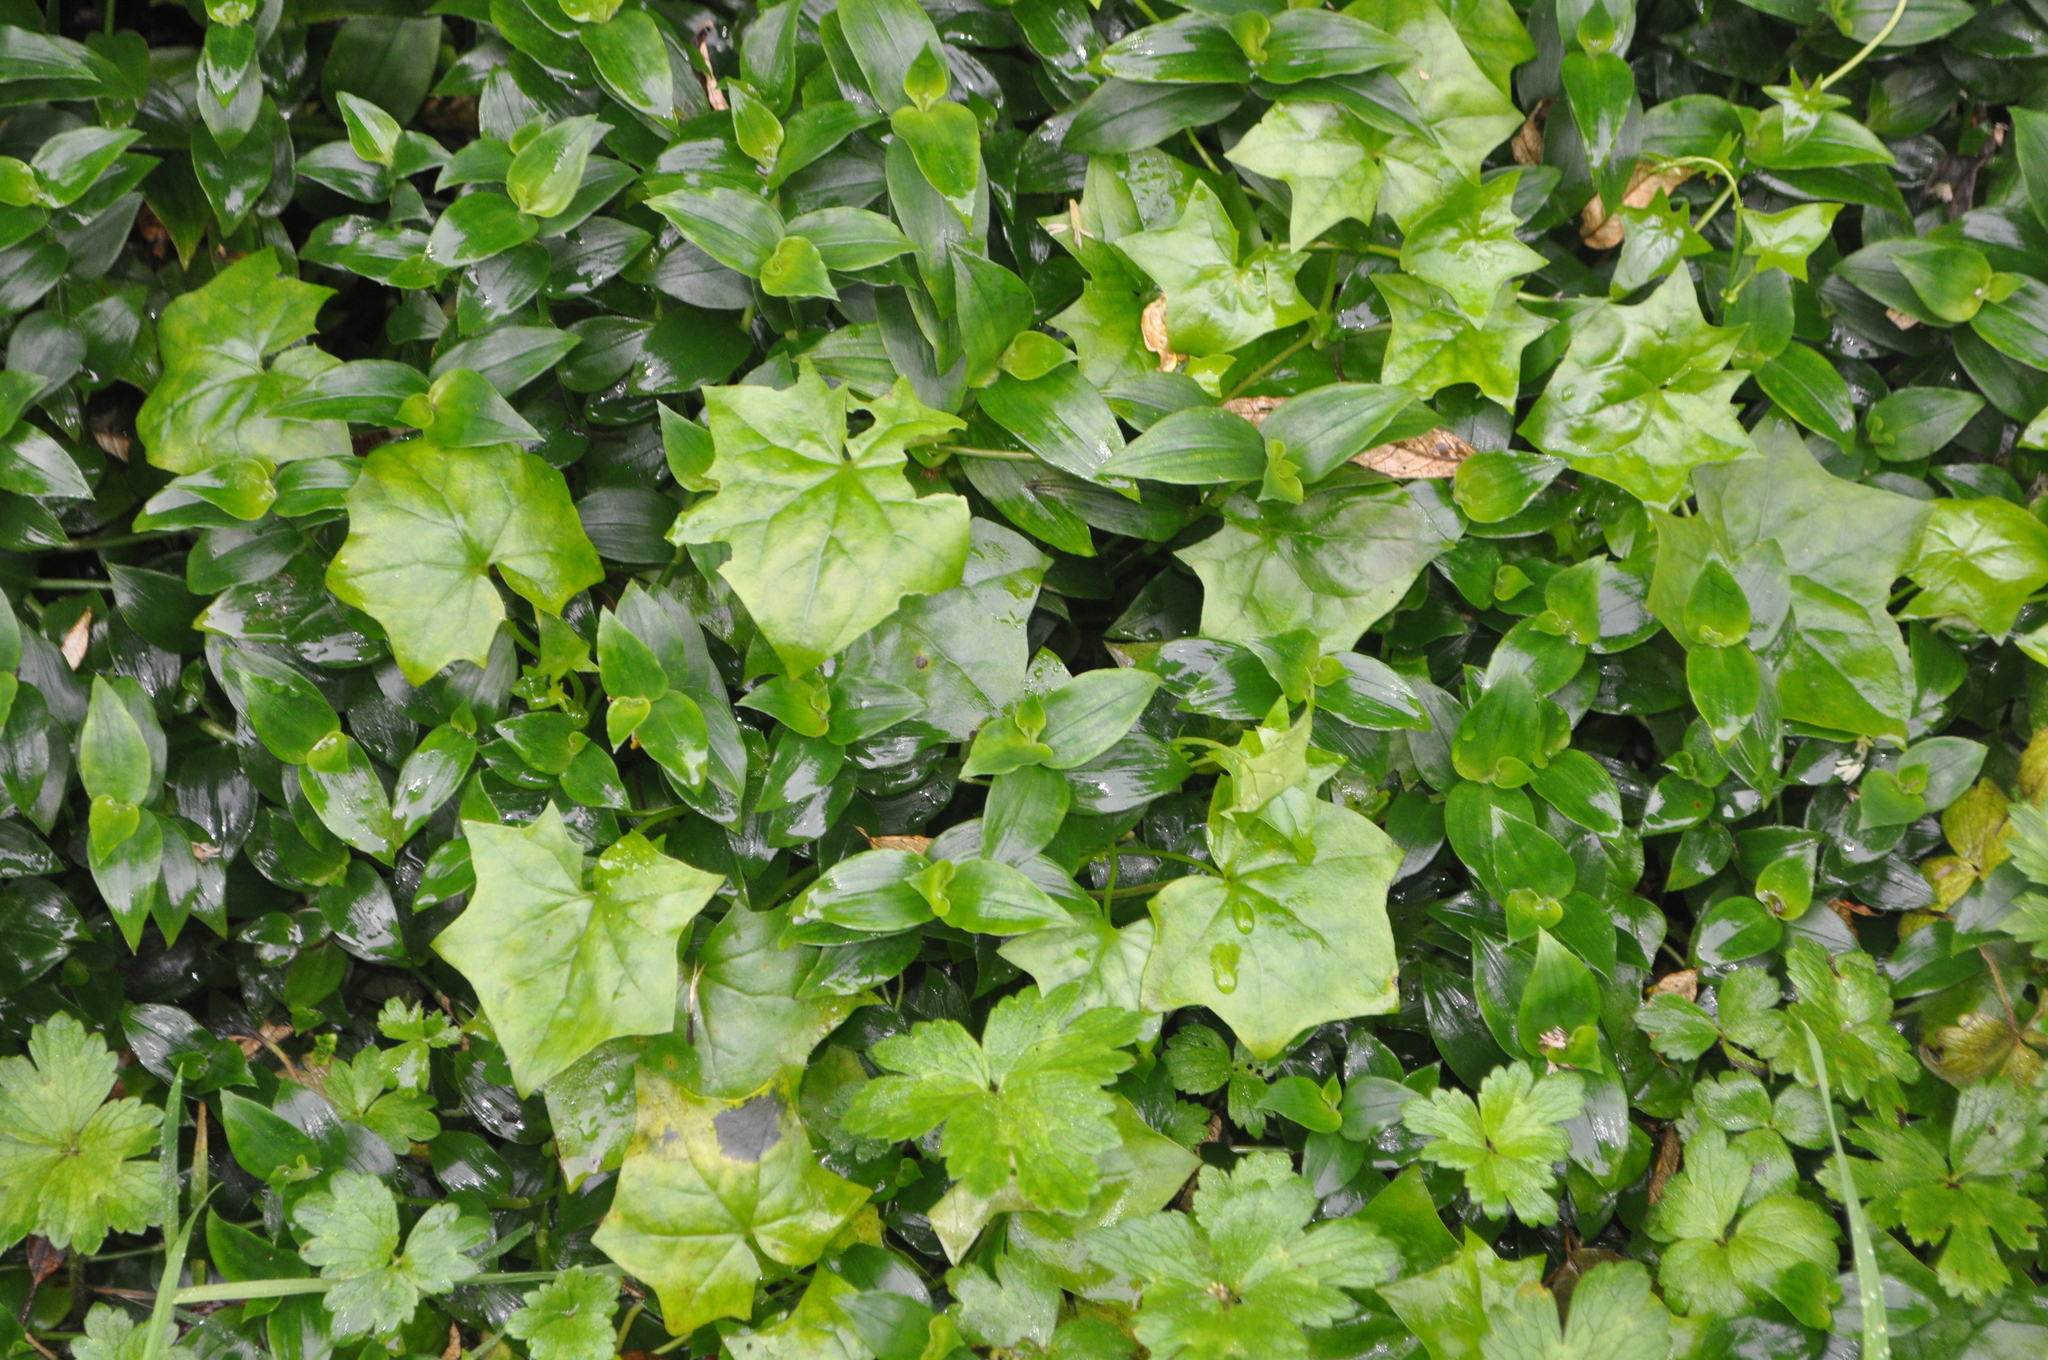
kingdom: Plantae
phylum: Tracheophyta
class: Magnoliopsida
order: Asterales
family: Asteraceae
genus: Delairea
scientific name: Delairea odorata
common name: Cape-ivy
